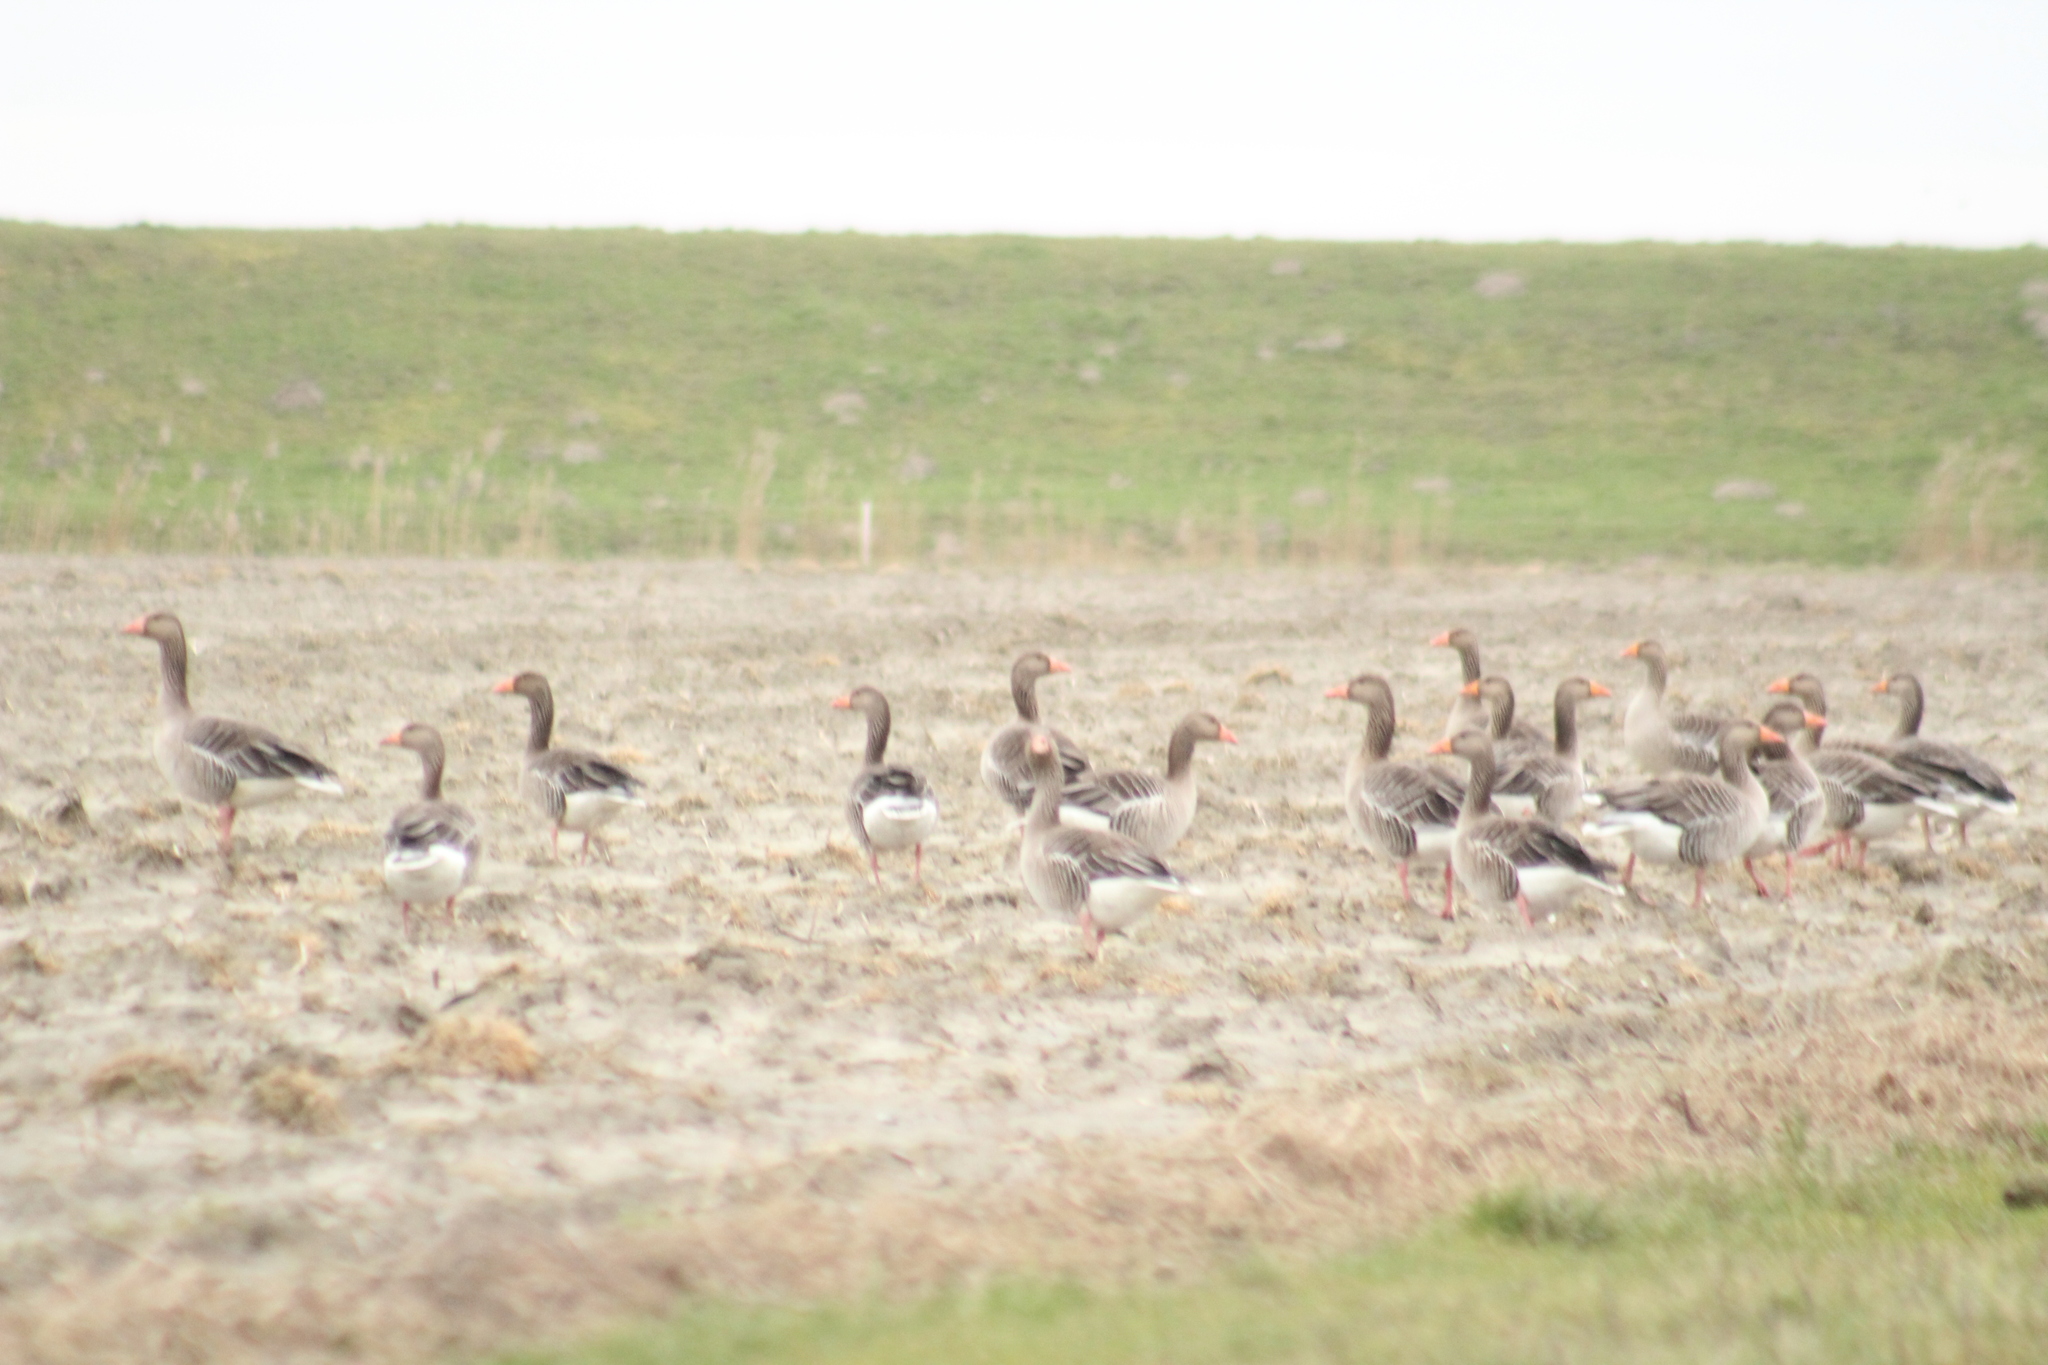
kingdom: Animalia
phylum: Chordata
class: Aves
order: Anseriformes
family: Anatidae
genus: Anser
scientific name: Anser anser
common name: Greylag goose
